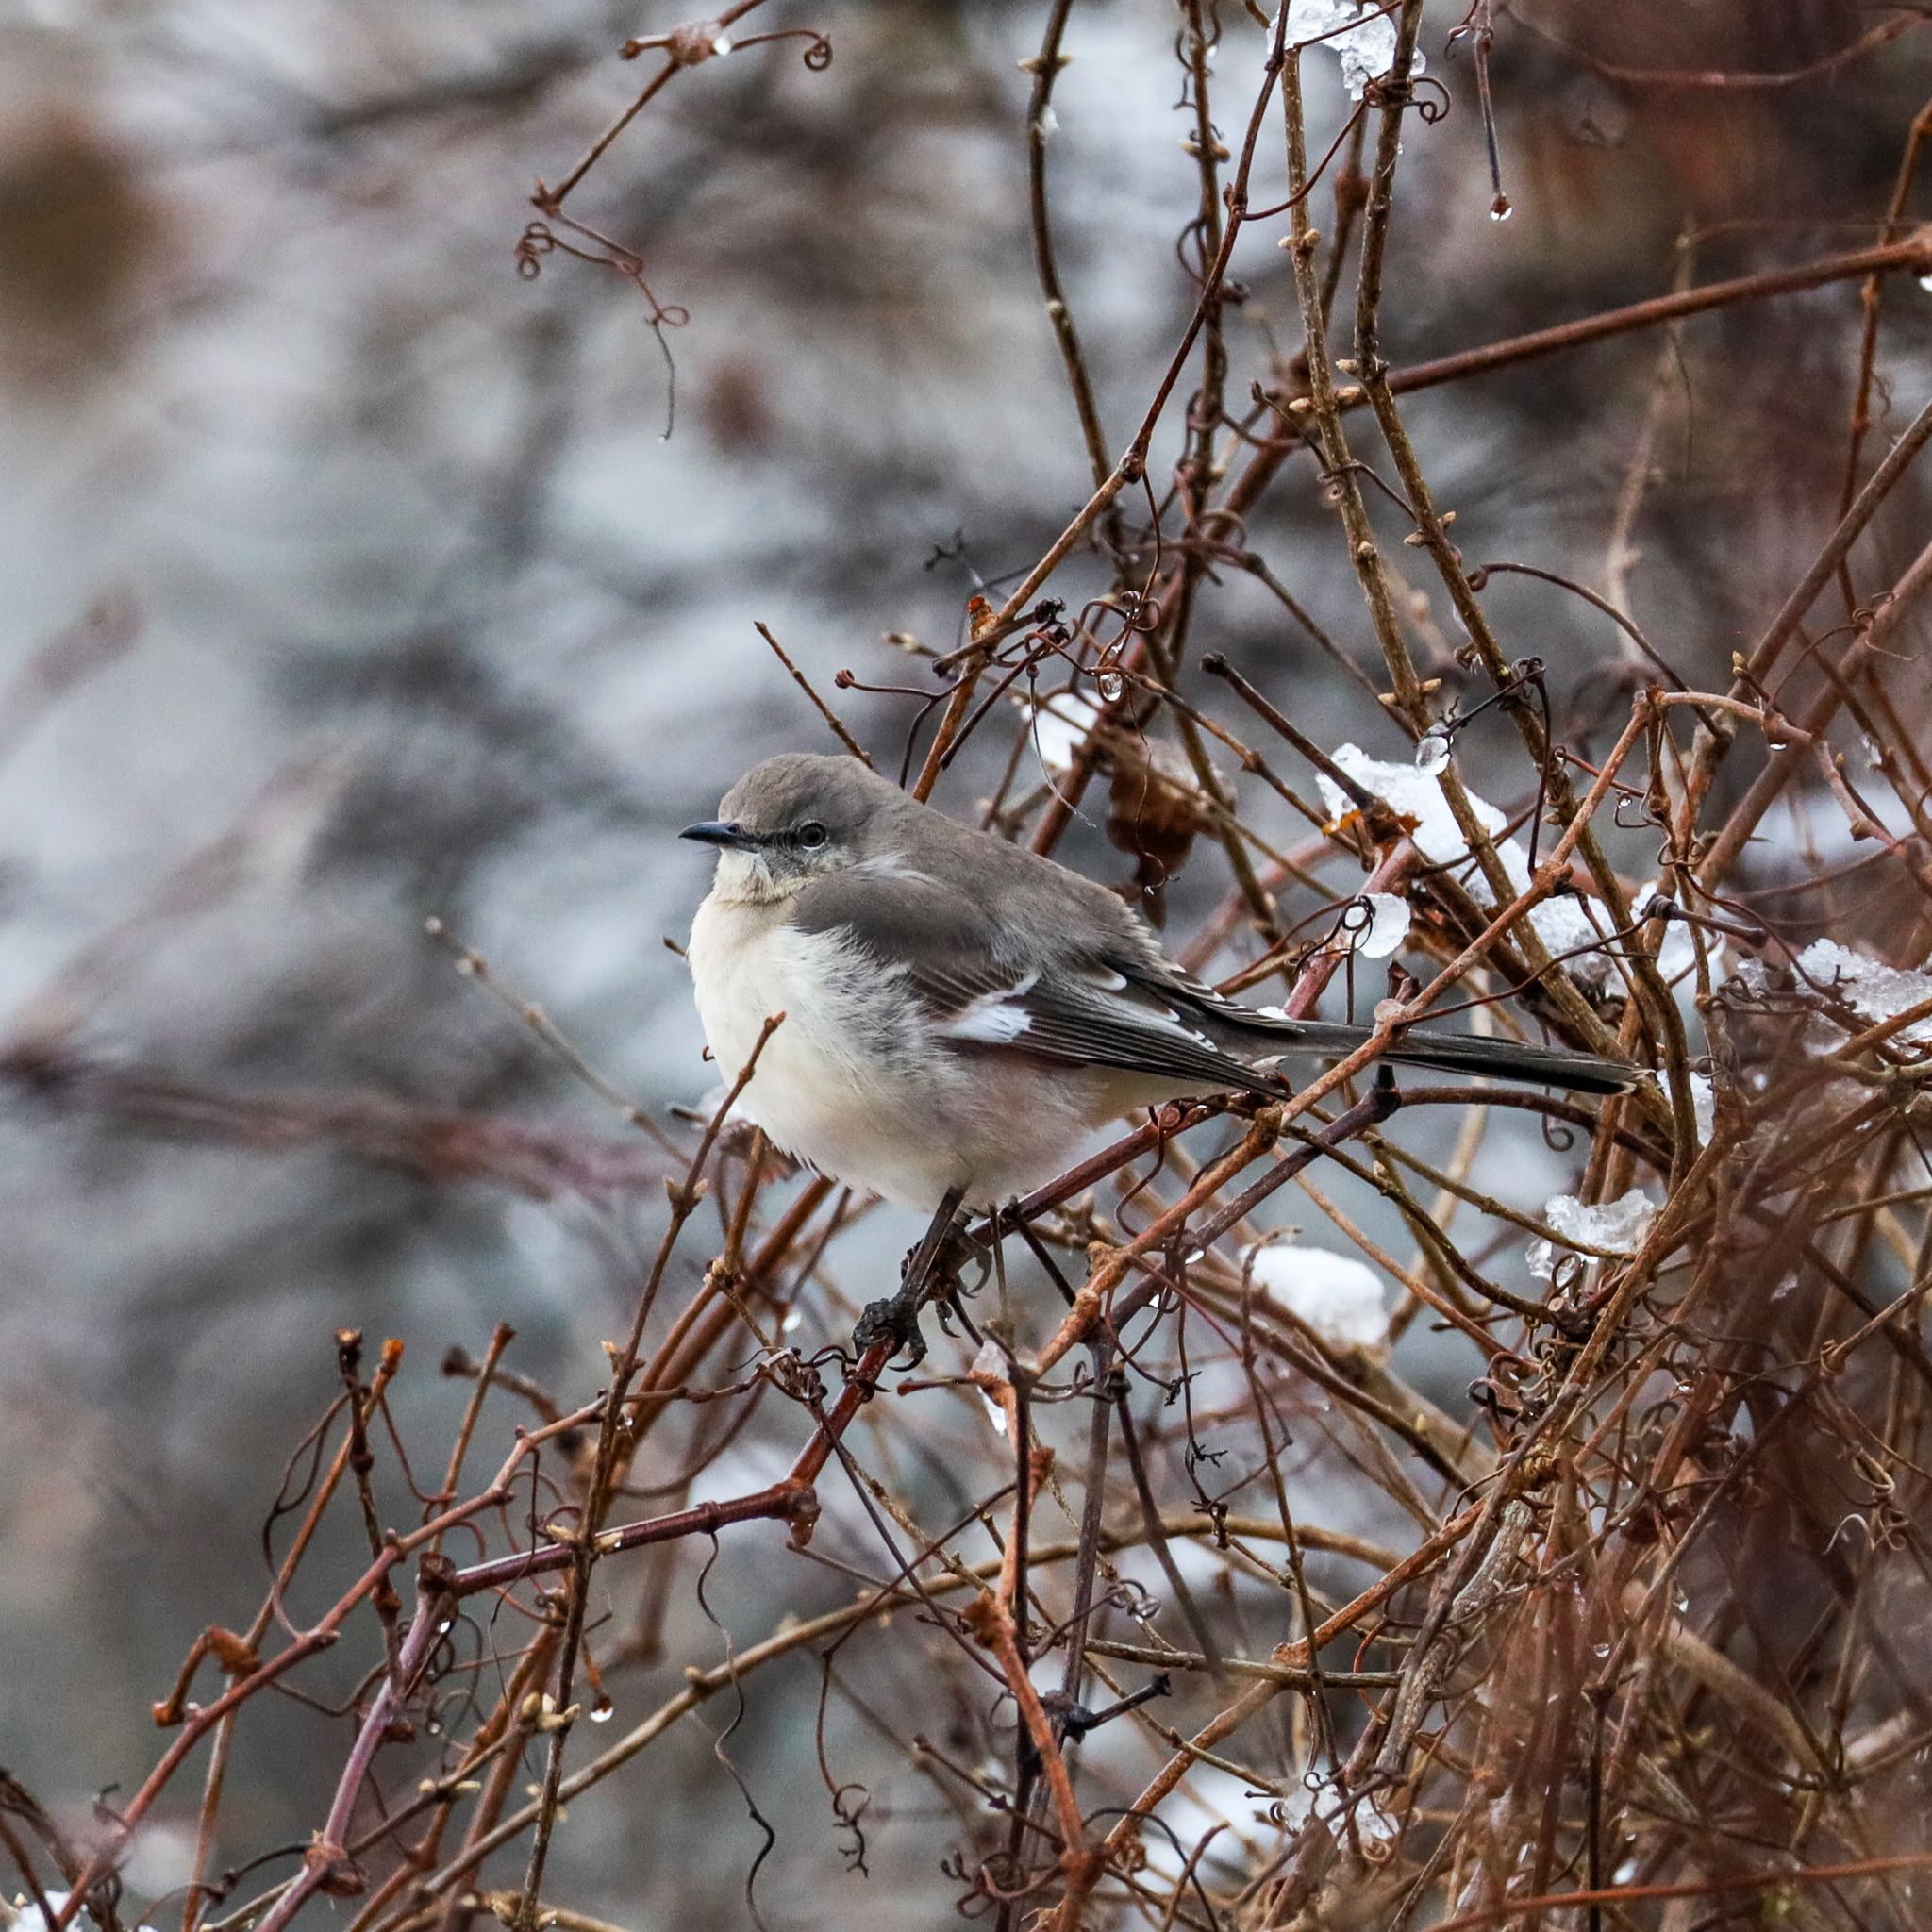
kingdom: Animalia
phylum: Chordata
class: Aves
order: Passeriformes
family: Mimidae
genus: Mimus
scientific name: Mimus polyglottos
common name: Northern mockingbird
